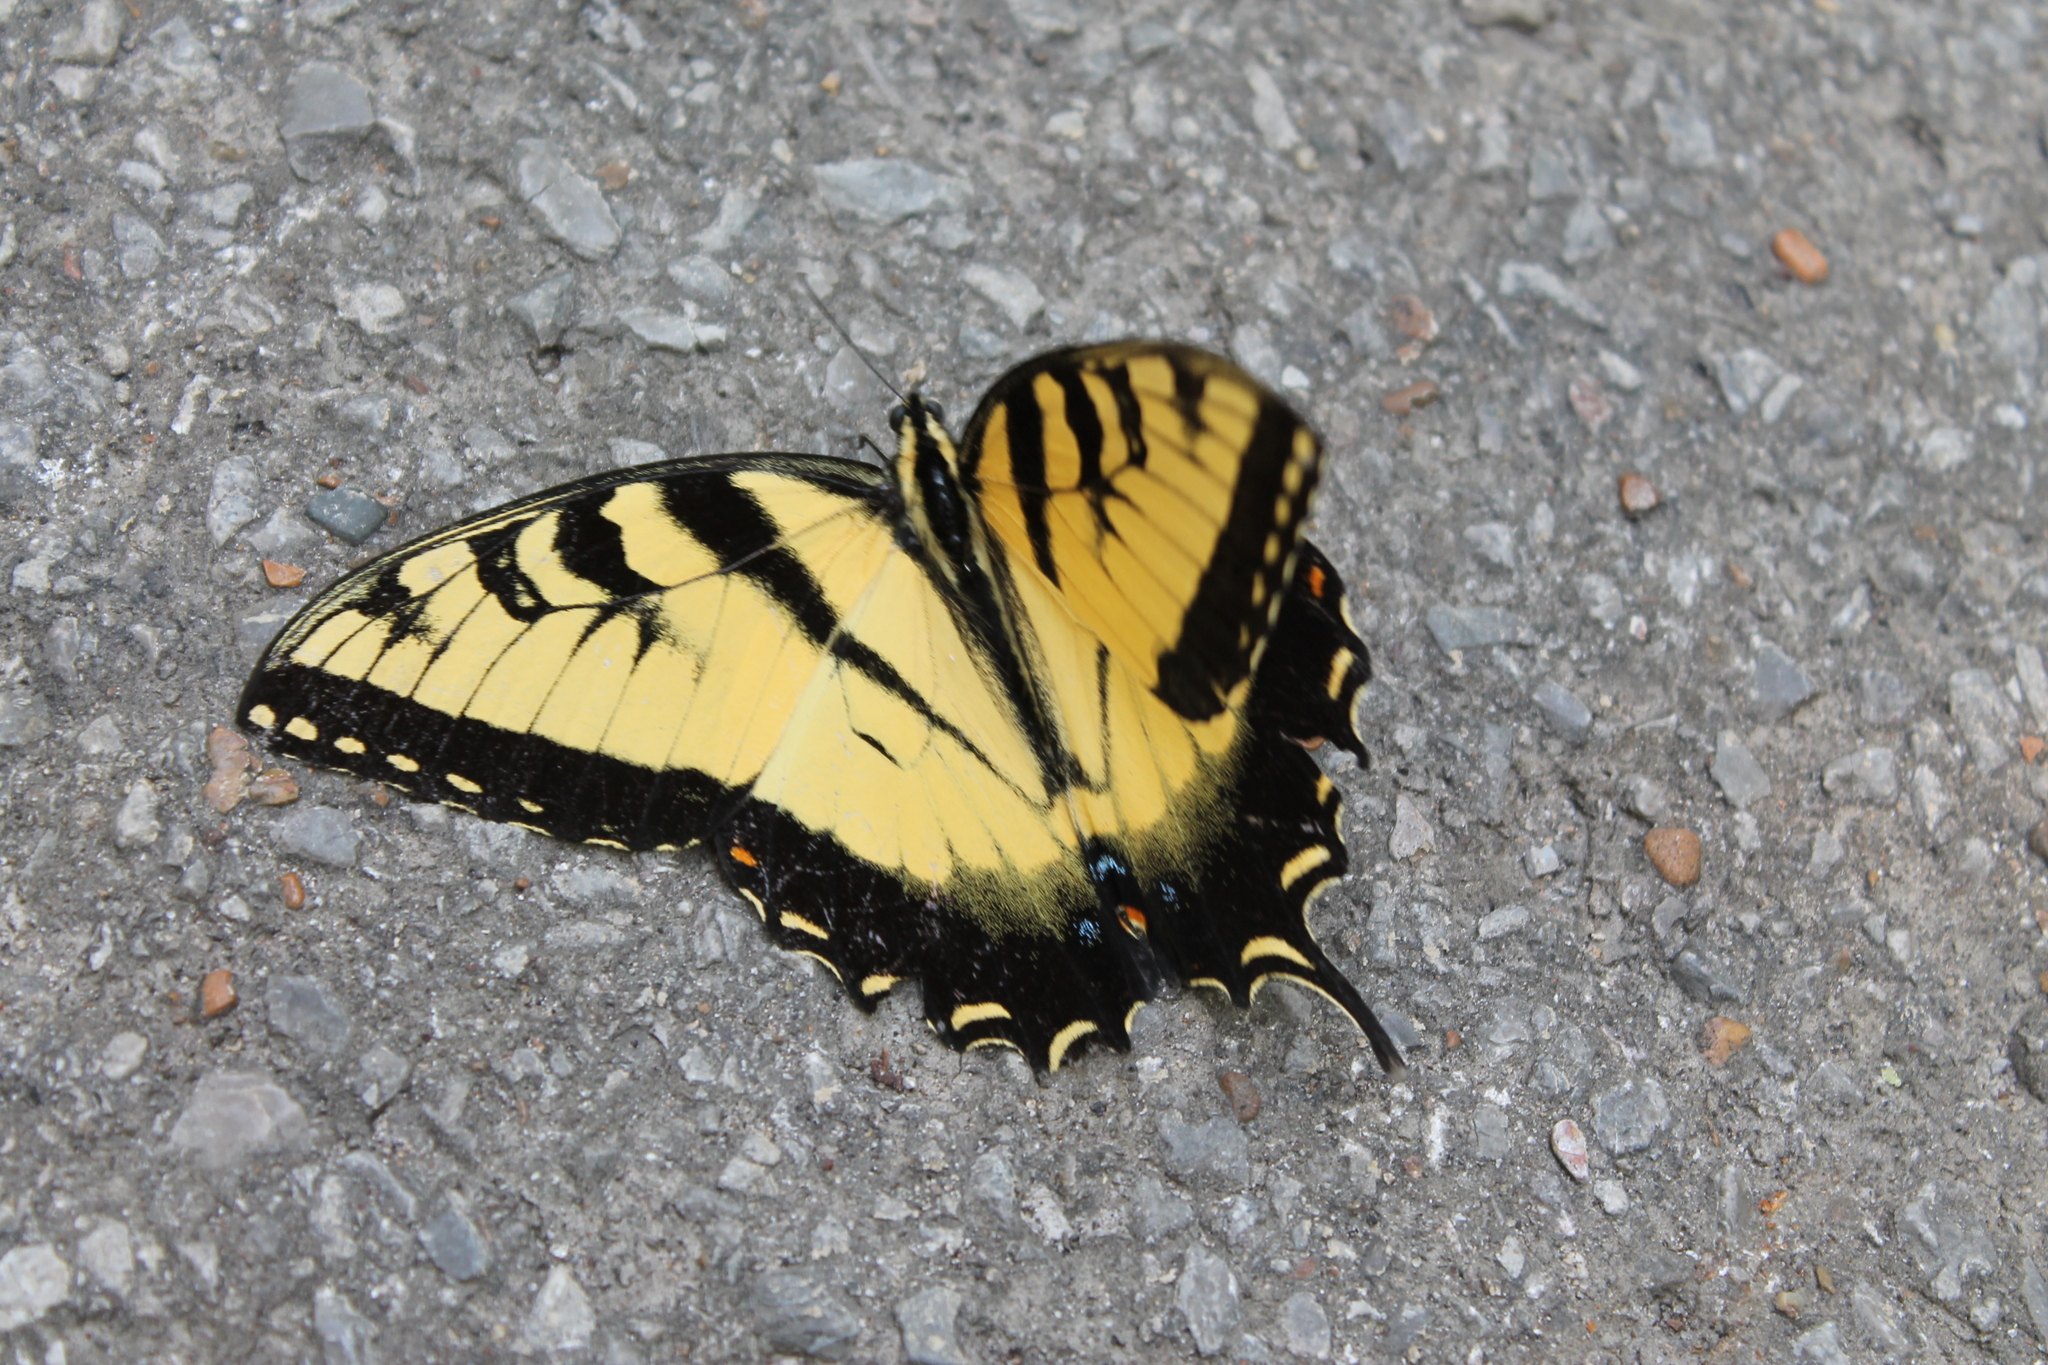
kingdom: Animalia
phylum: Arthropoda
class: Insecta
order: Lepidoptera
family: Papilionidae
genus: Papilio
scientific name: Papilio glaucus
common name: Tiger swallowtail
